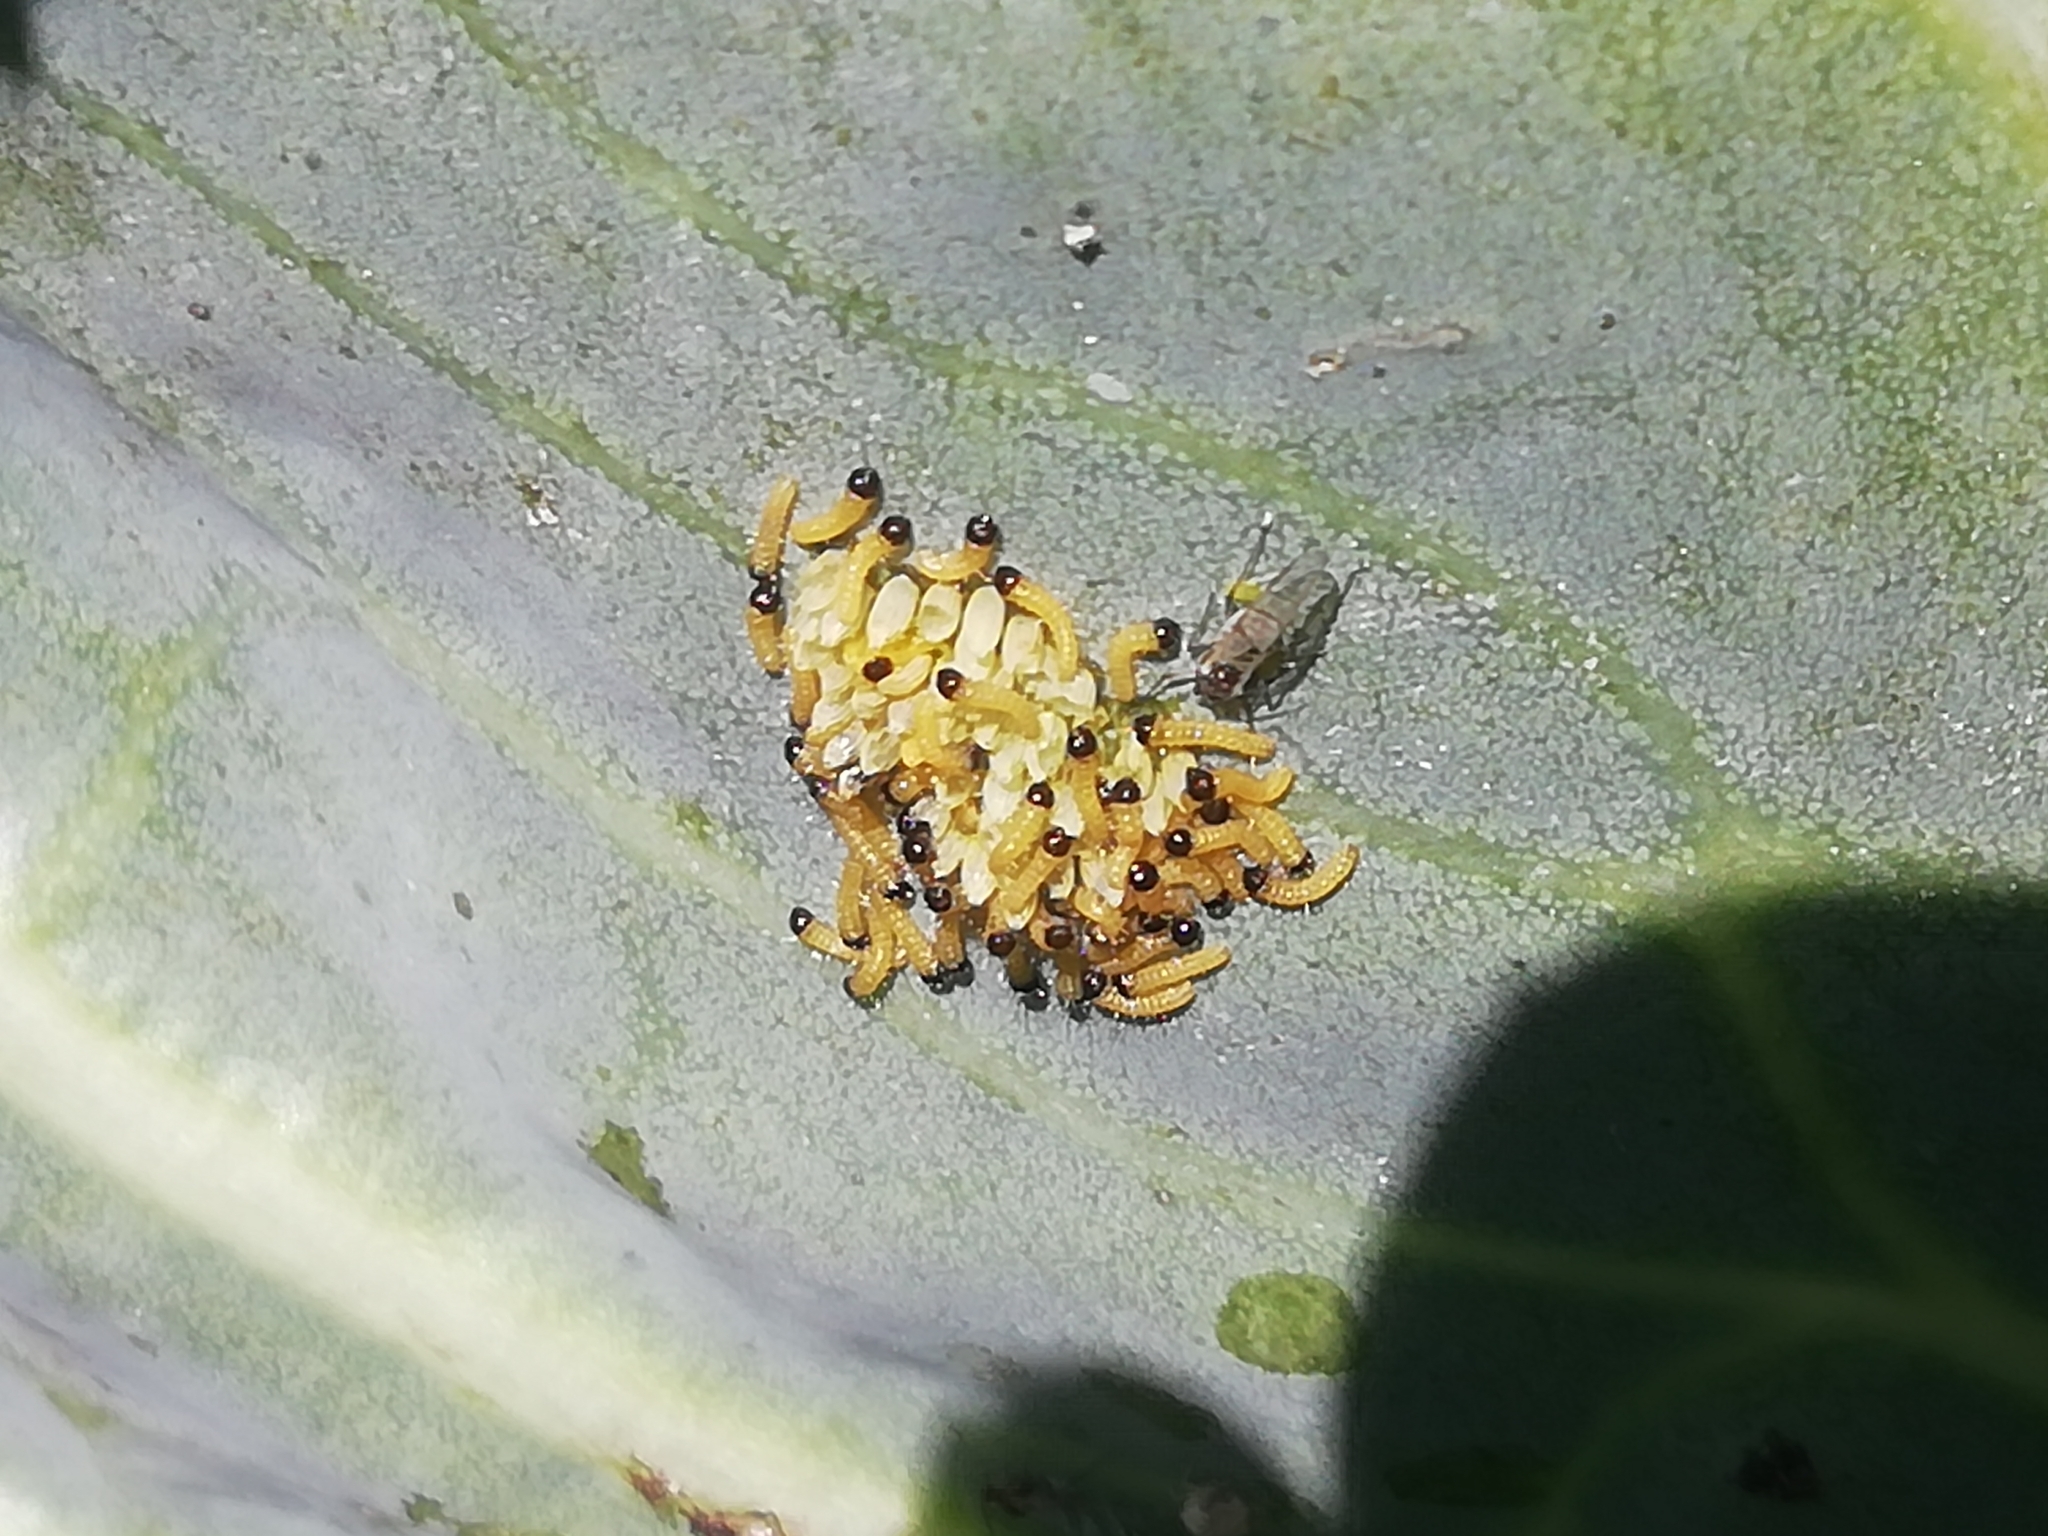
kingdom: Animalia
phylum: Arthropoda
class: Insecta
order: Lepidoptera
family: Pieridae
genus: Pieris
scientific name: Pieris brassicae
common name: Large white
